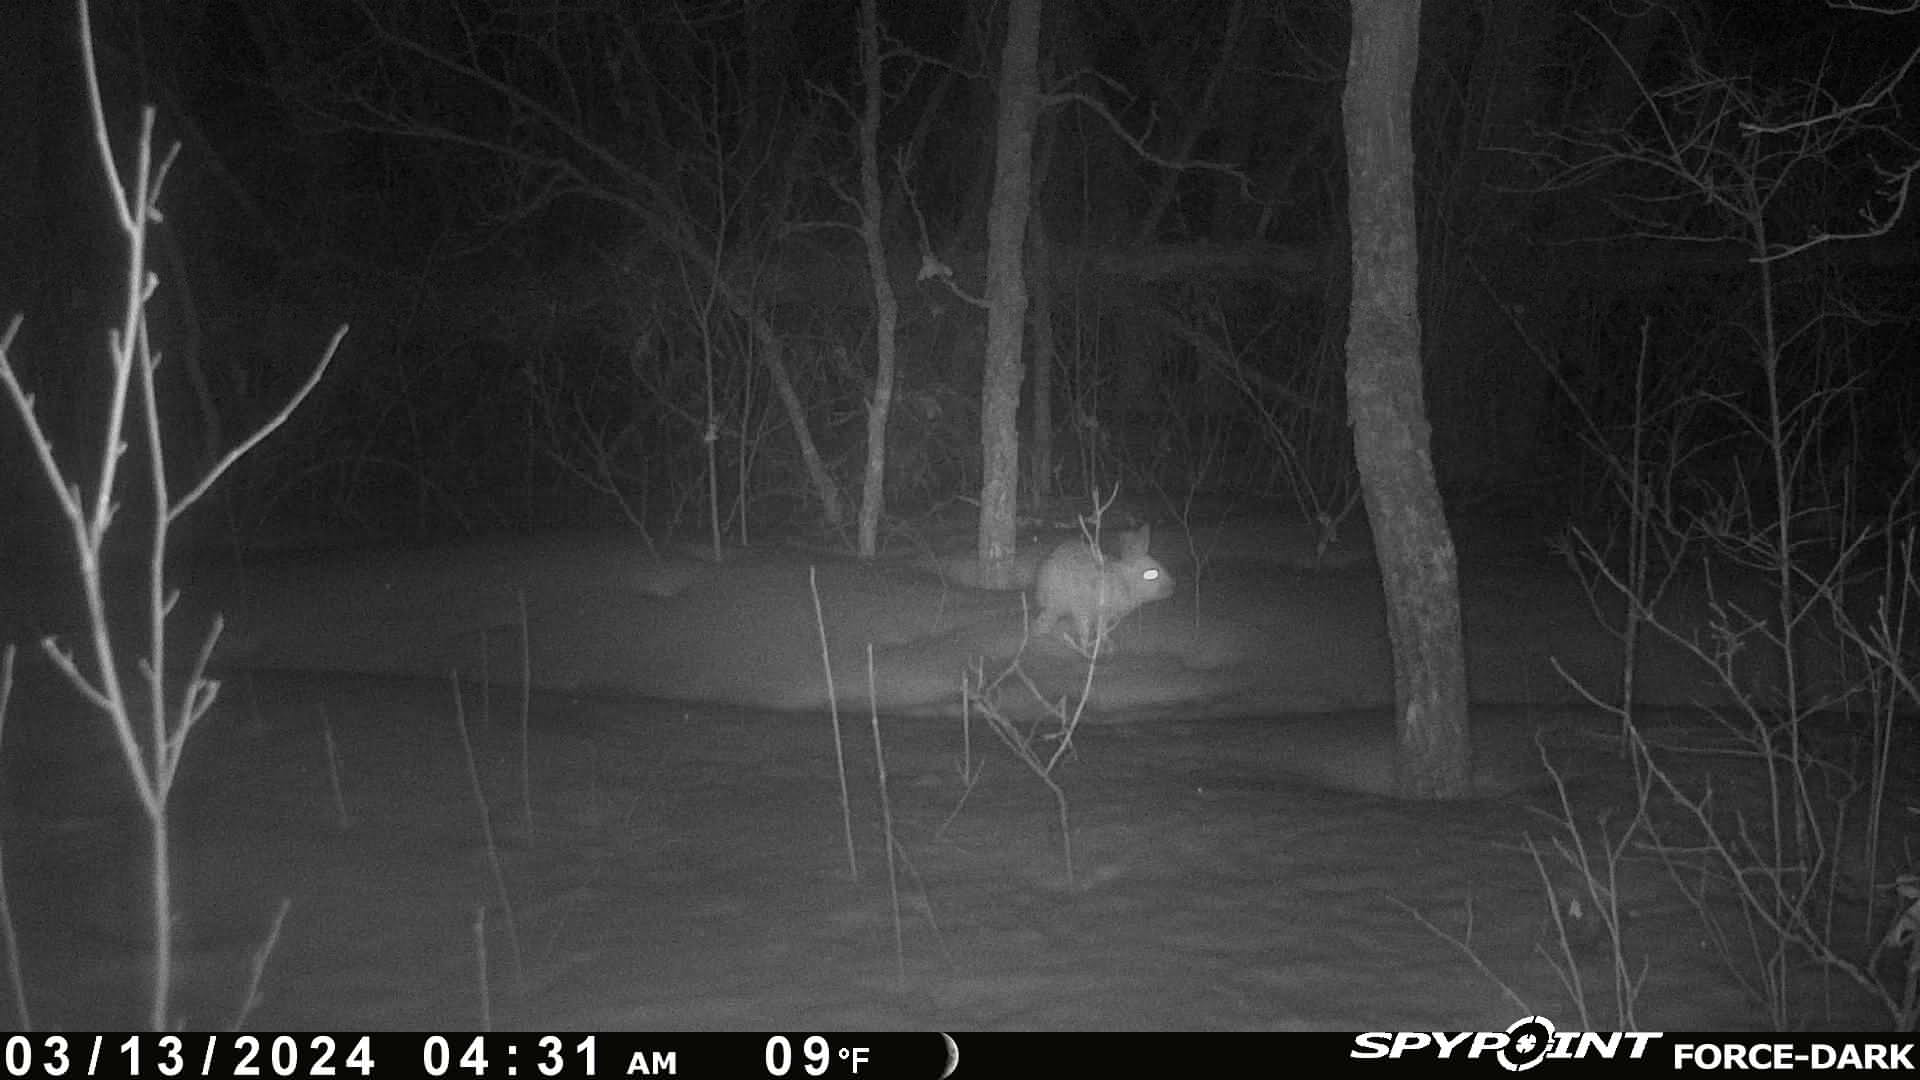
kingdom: Animalia
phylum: Chordata
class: Mammalia
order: Lagomorpha
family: Leporidae
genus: Lepus
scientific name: Lepus americanus
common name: Snowshoe hare
